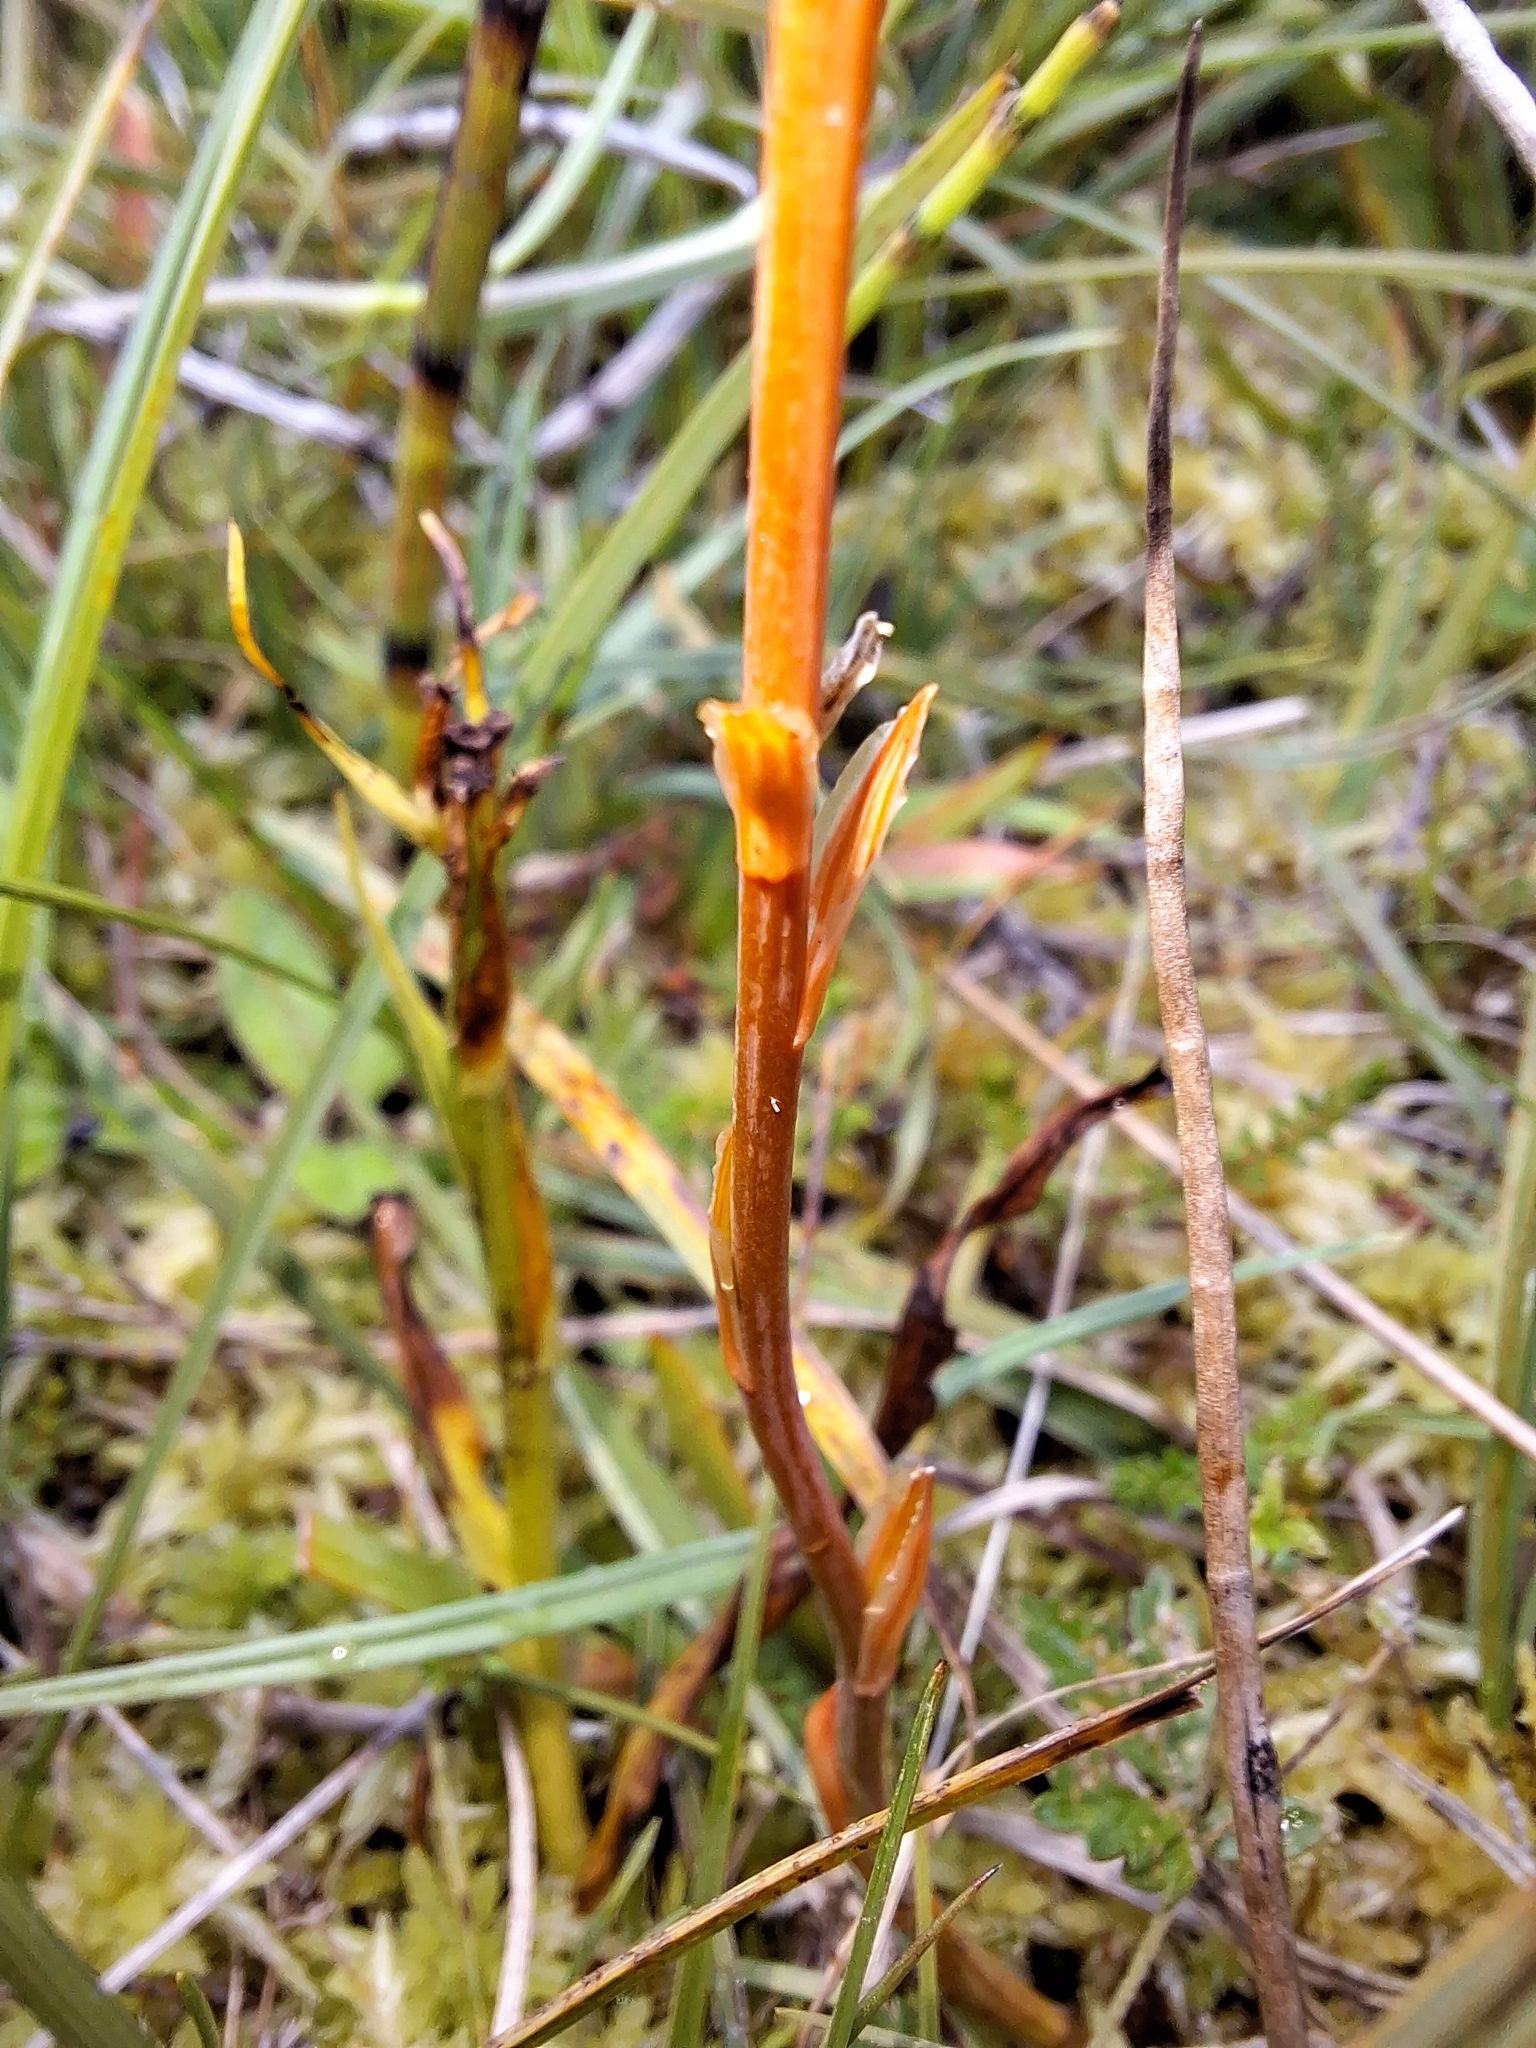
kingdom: Plantae
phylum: Tracheophyta
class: Liliopsida
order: Dioscoreales
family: Nartheciaceae
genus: Narthecium
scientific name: Narthecium ossifragum
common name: Bog asphodel
